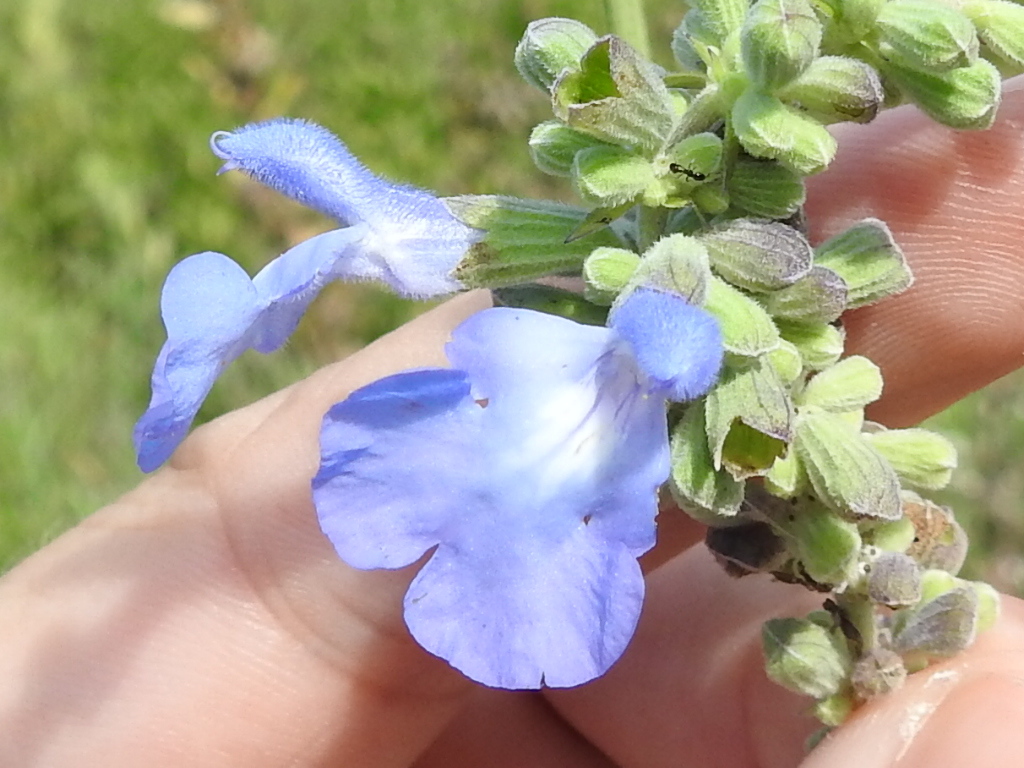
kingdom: Plantae
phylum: Tracheophyta
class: Magnoliopsida
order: Lamiales
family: Lamiaceae
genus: Salvia
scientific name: Salvia azurea
